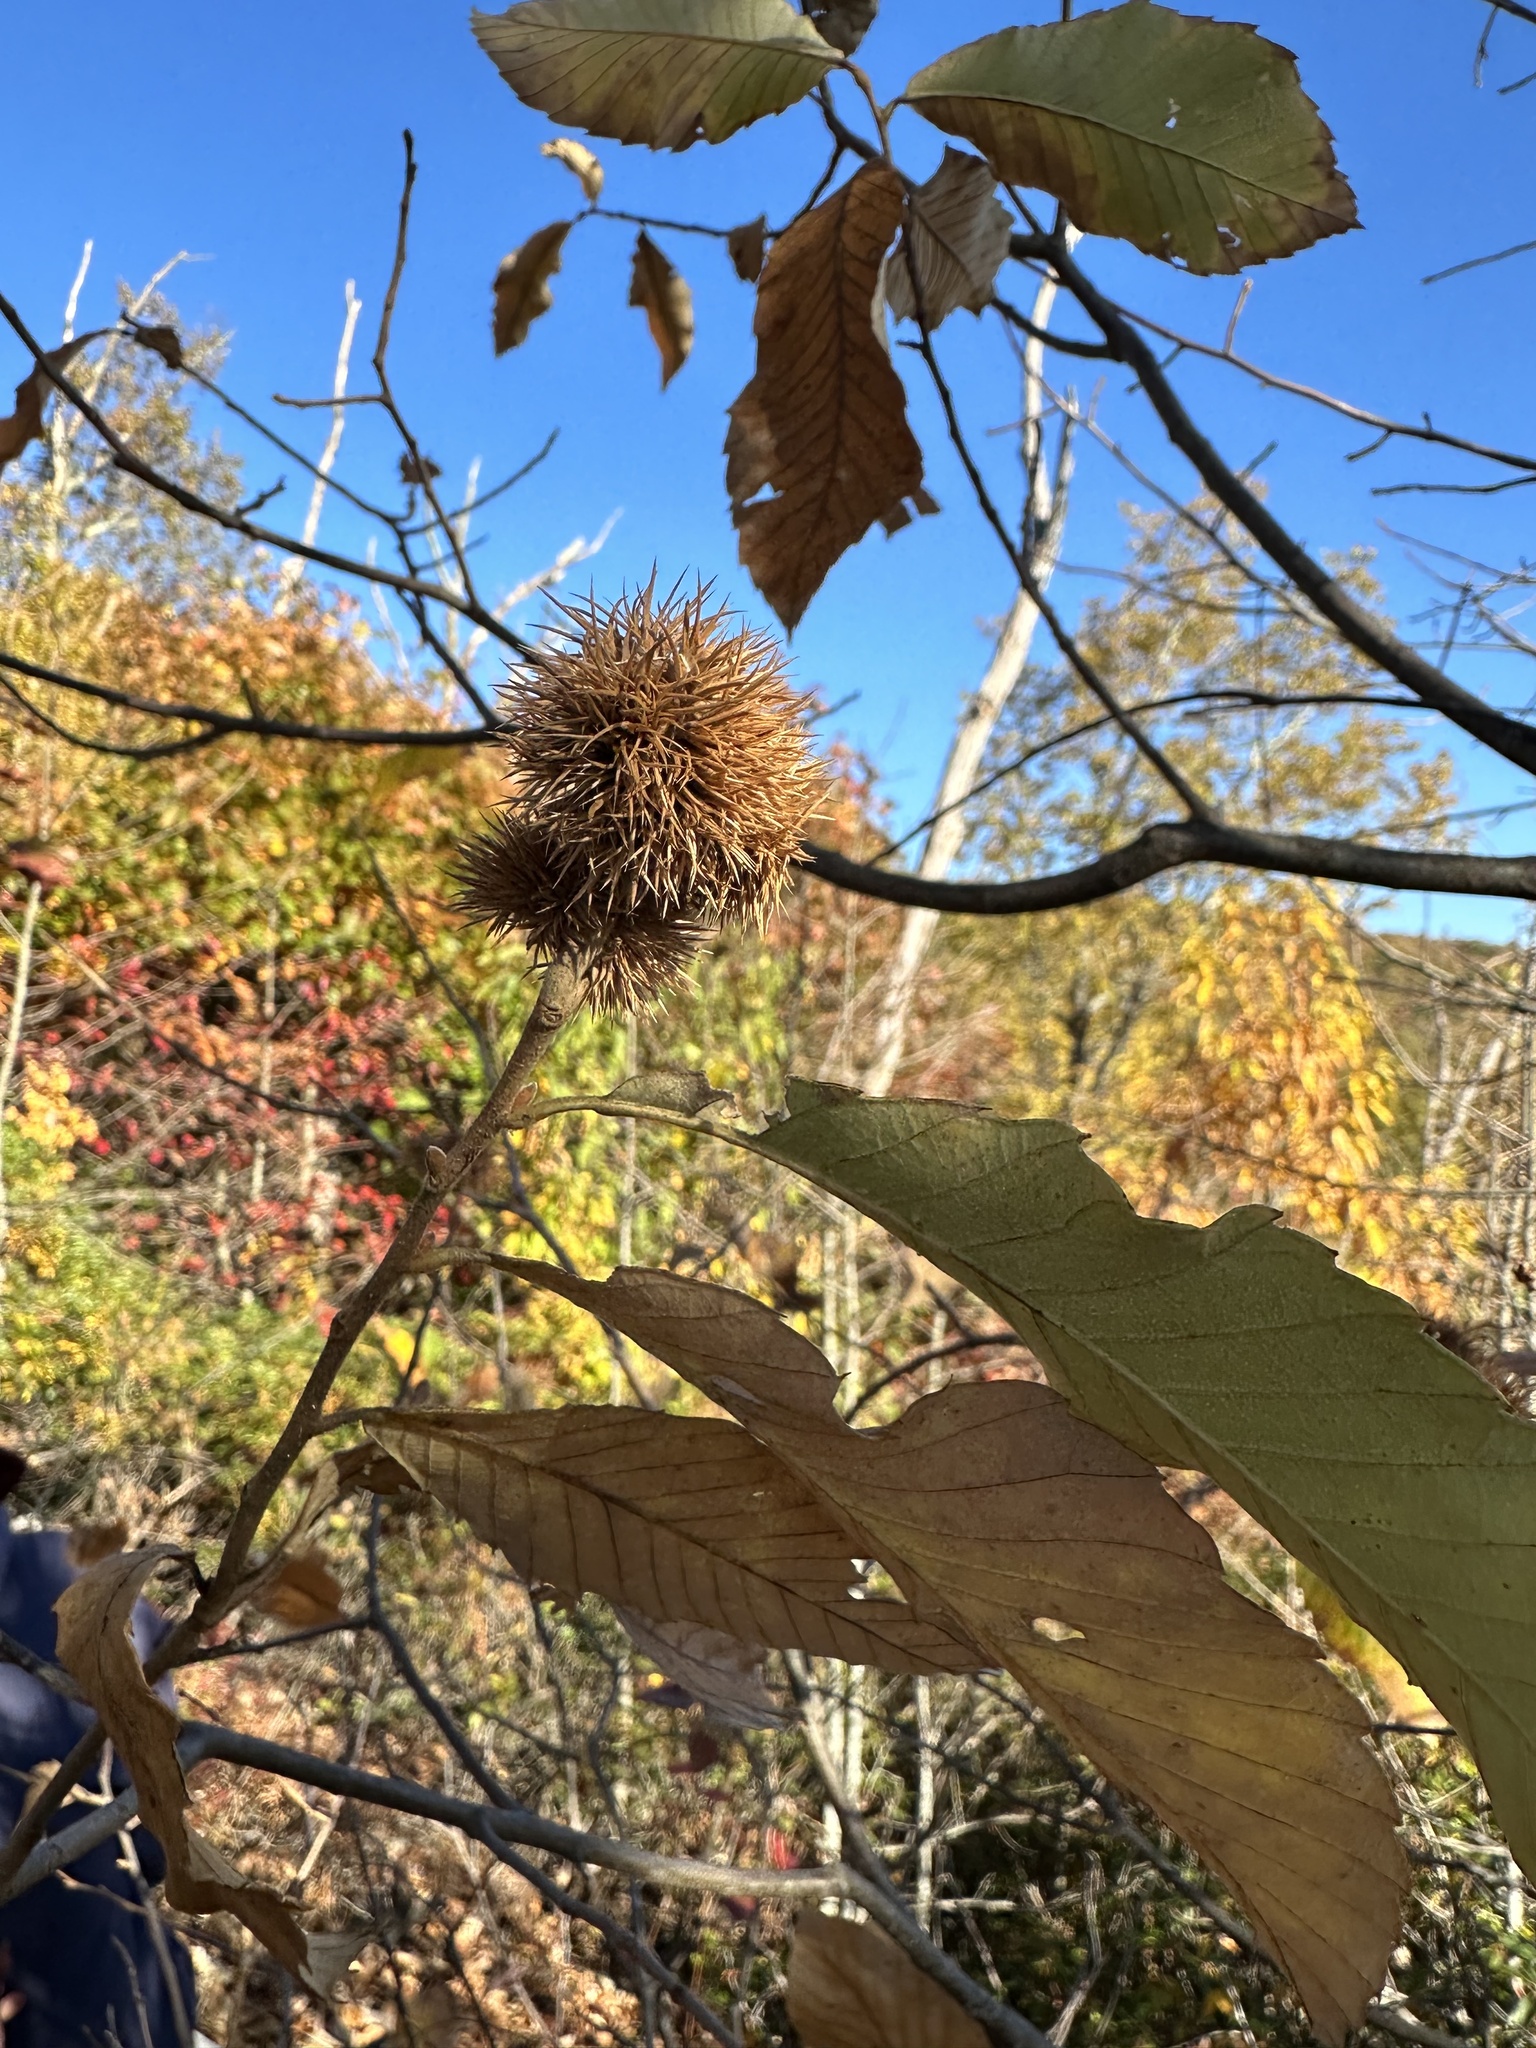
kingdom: Plantae
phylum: Tracheophyta
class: Magnoliopsida
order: Fagales
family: Fagaceae
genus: Castanea
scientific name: Castanea pumila
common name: Chinkapin
